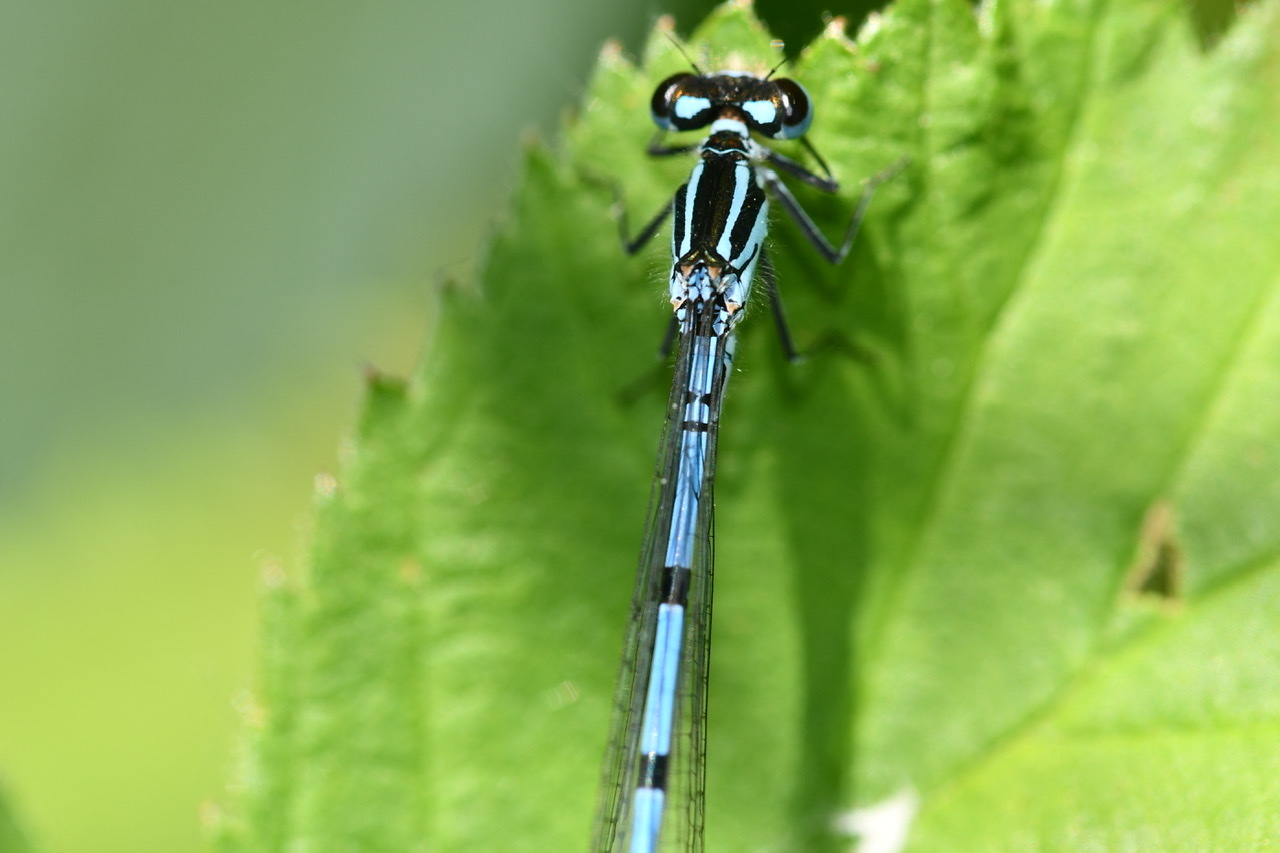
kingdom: Animalia
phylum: Arthropoda
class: Insecta
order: Odonata
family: Coenagrionidae
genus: Coenagrion
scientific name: Coenagrion puella
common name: Azure damselfly
